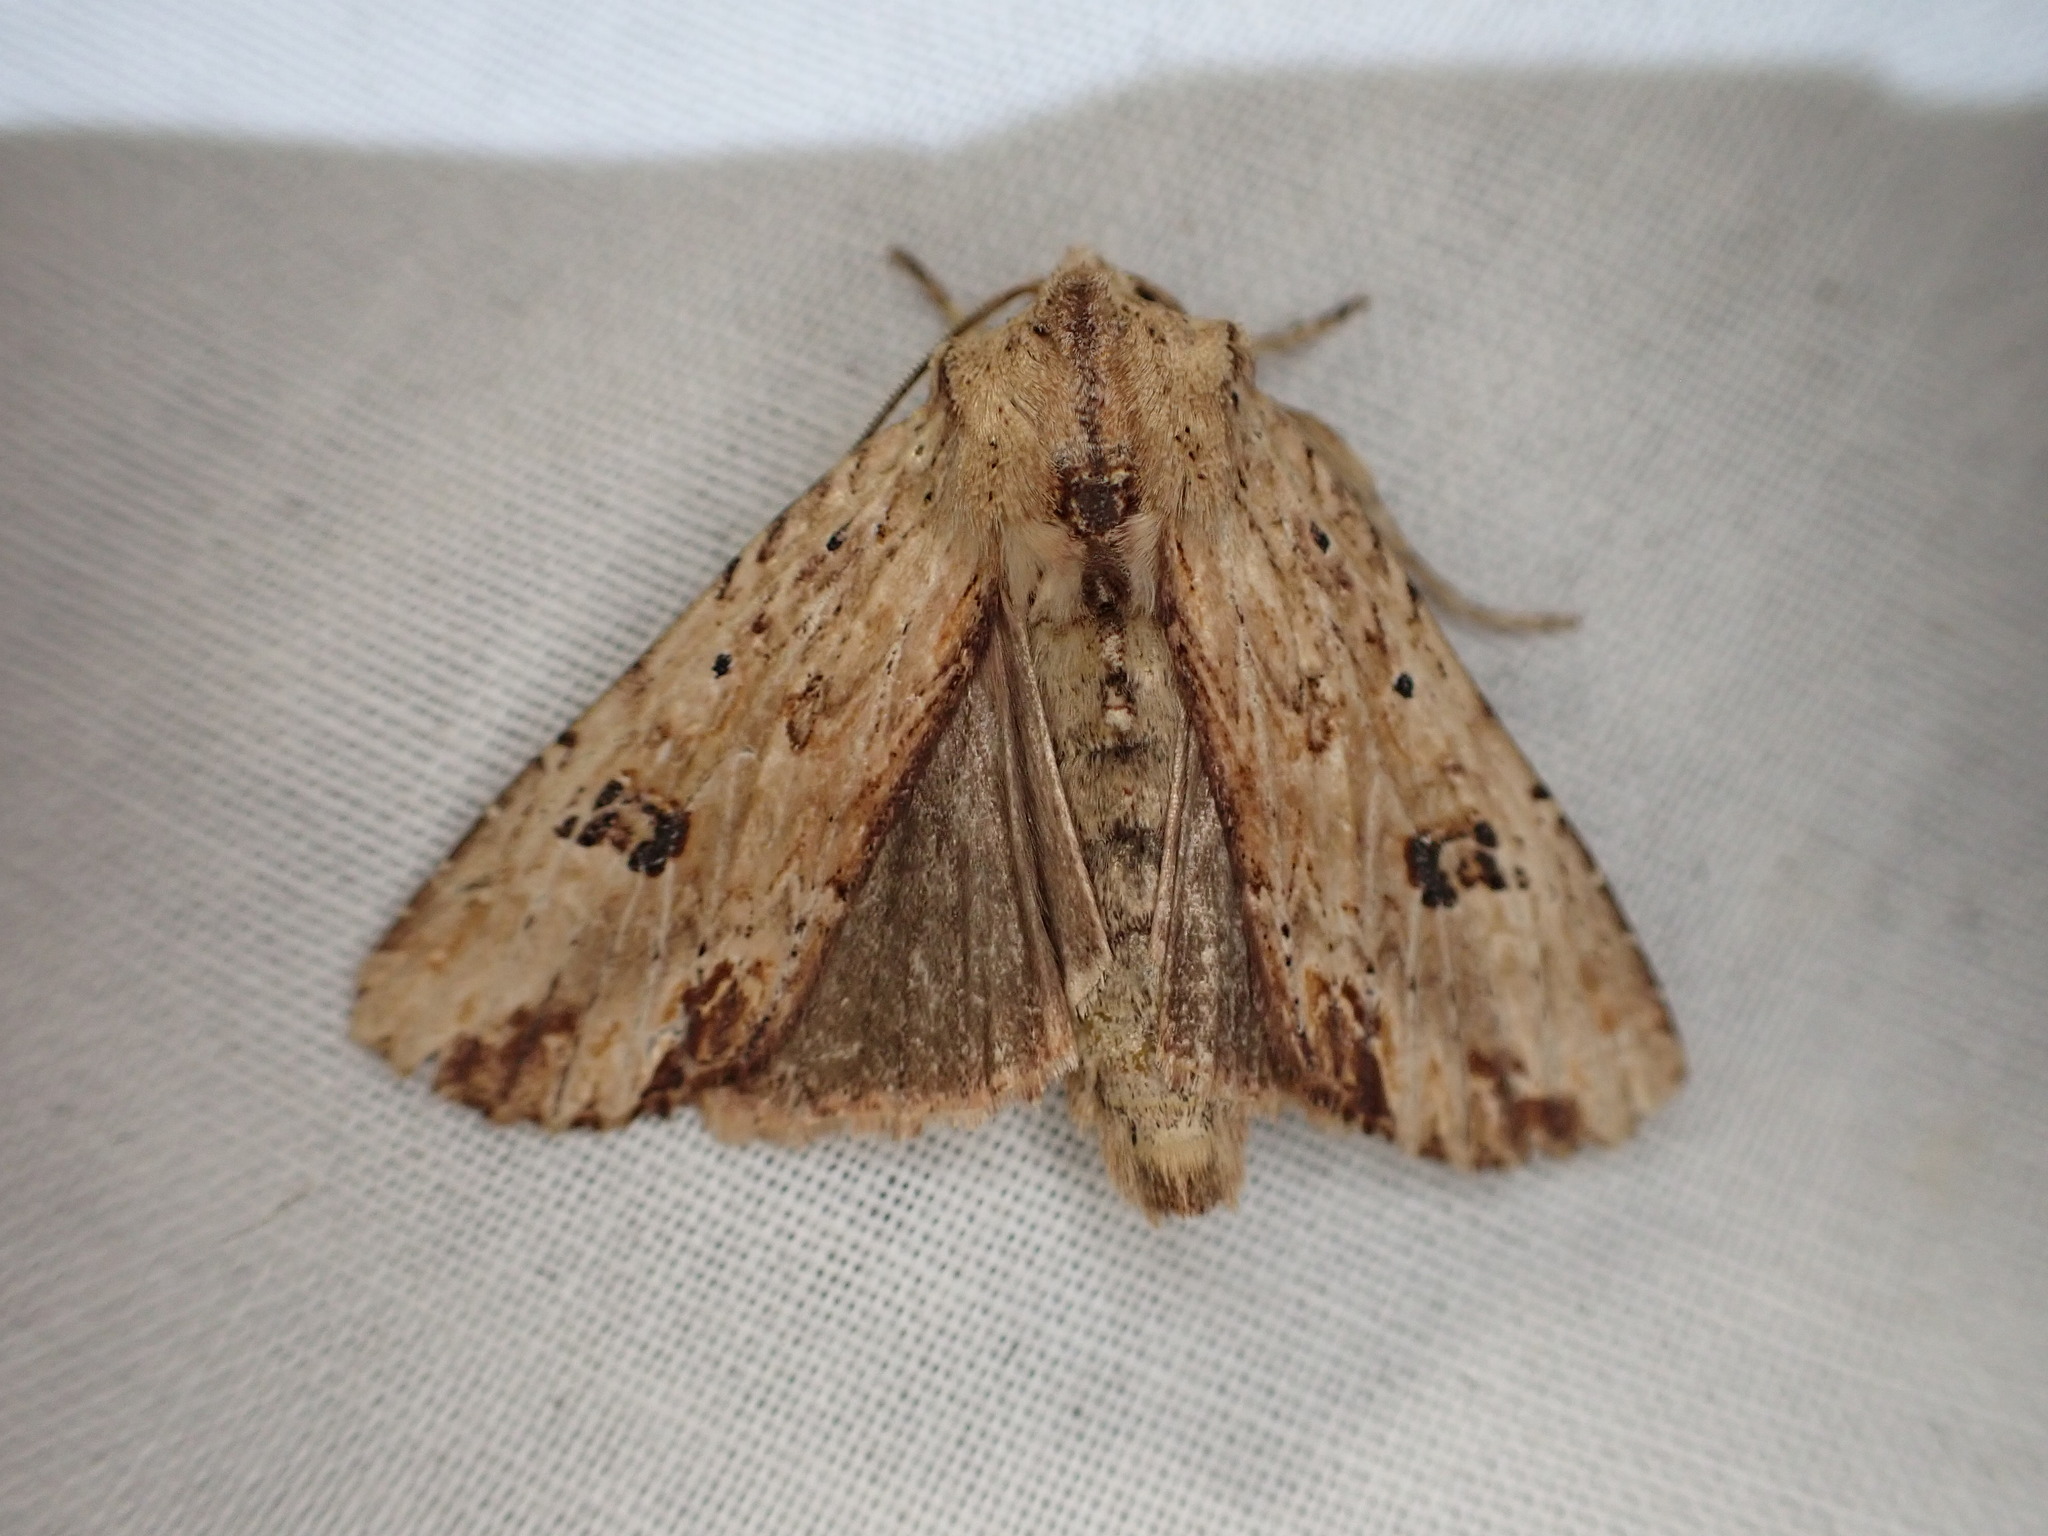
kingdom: Animalia
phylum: Arthropoda
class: Insecta
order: Lepidoptera
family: Noctuidae
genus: Ichneutica
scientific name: Ichneutica
